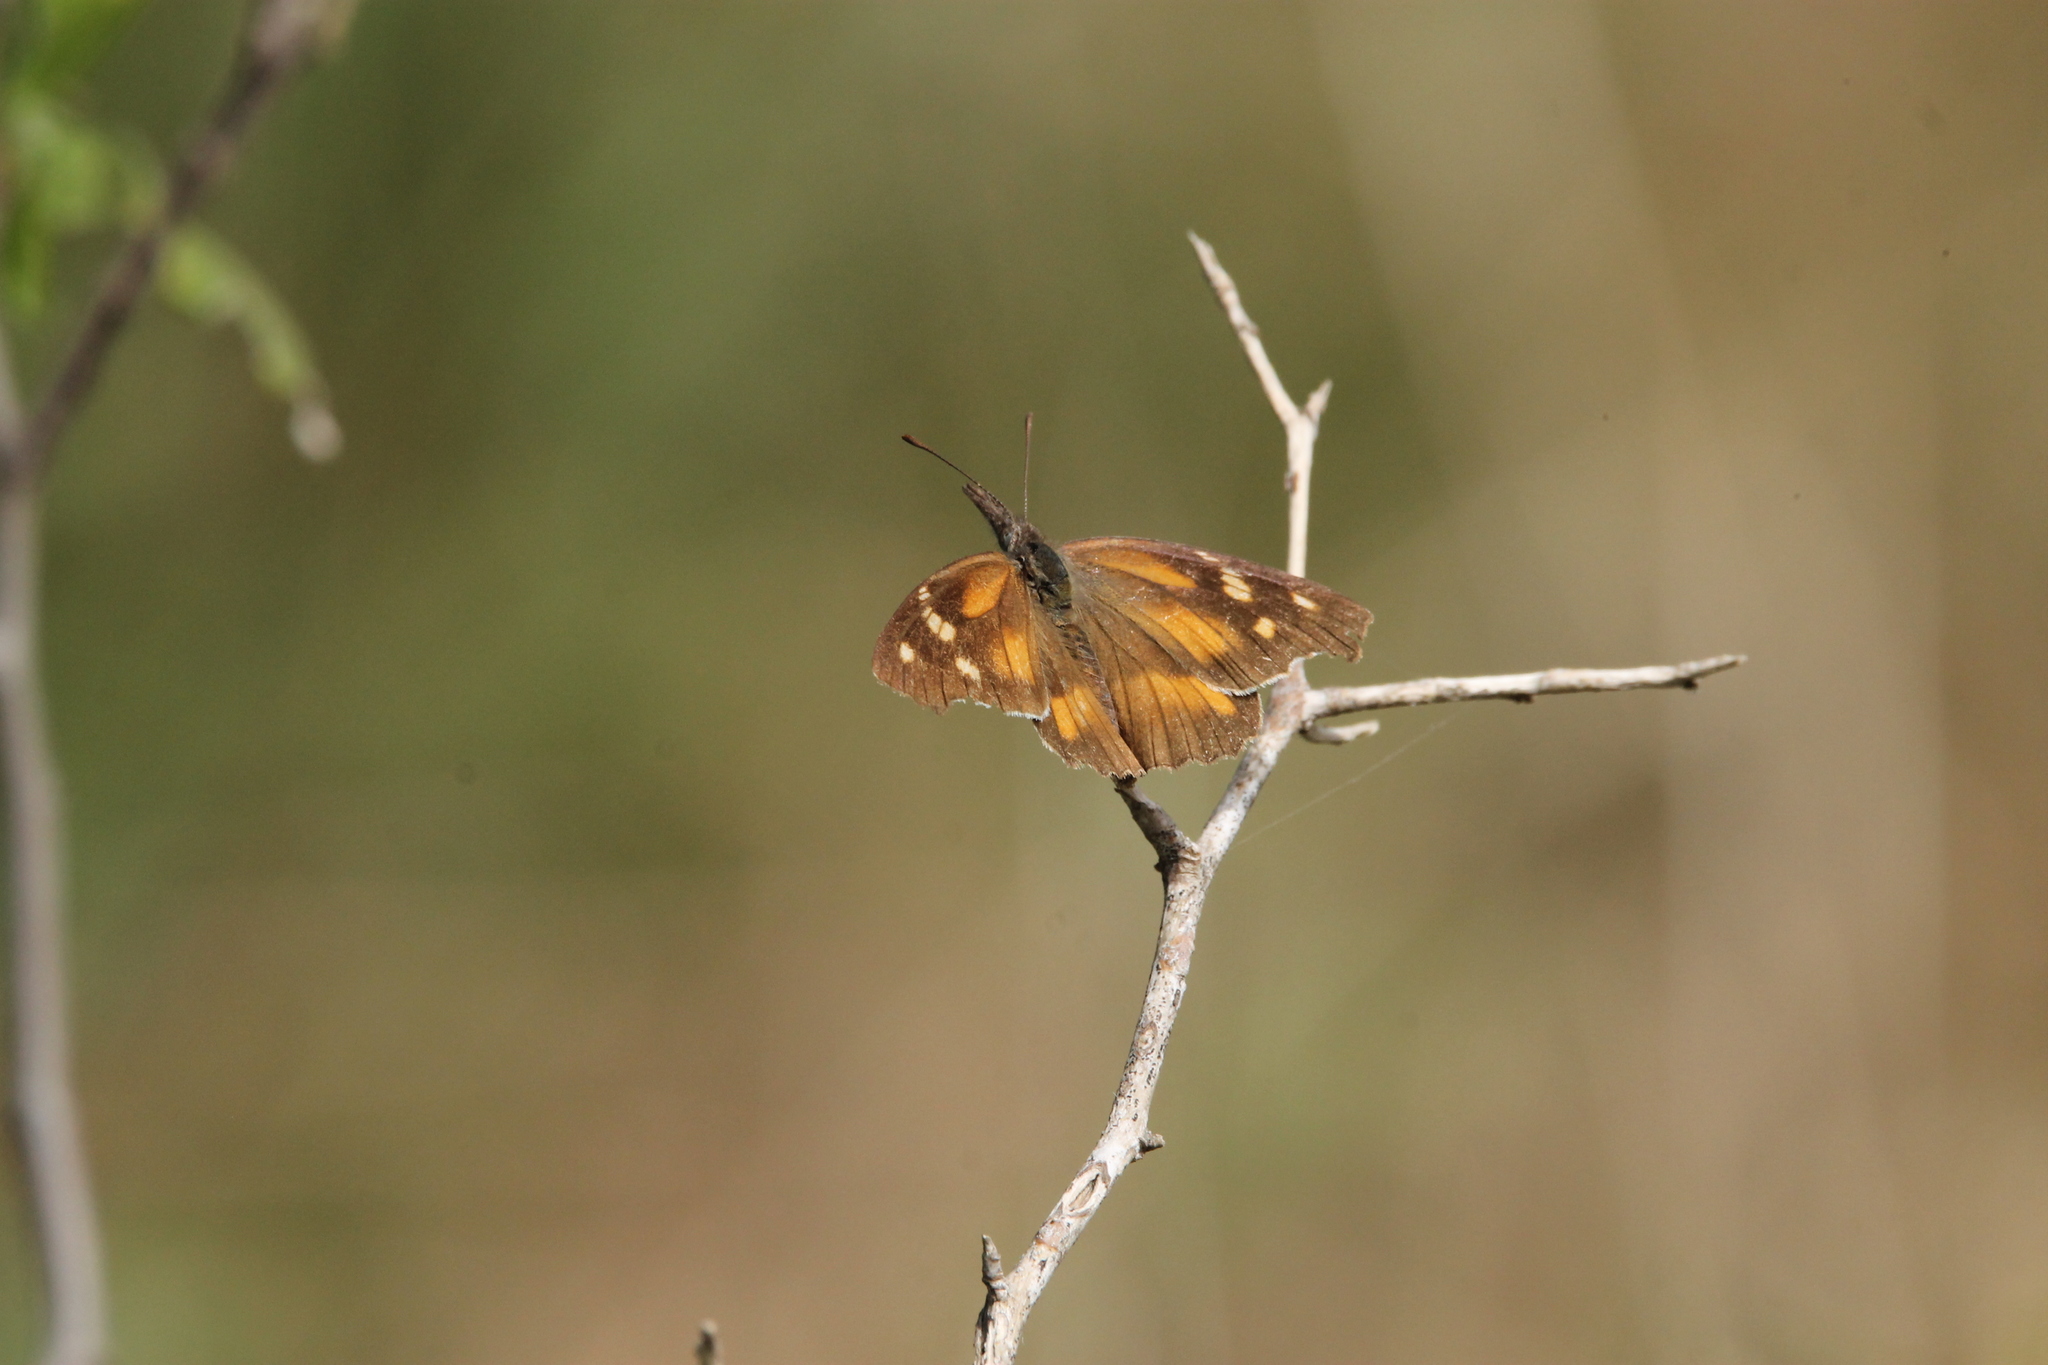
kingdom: Animalia
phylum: Arthropoda
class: Insecta
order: Lepidoptera
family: Nymphalidae
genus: Libytheana
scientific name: Libytheana carinenta
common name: American snout
